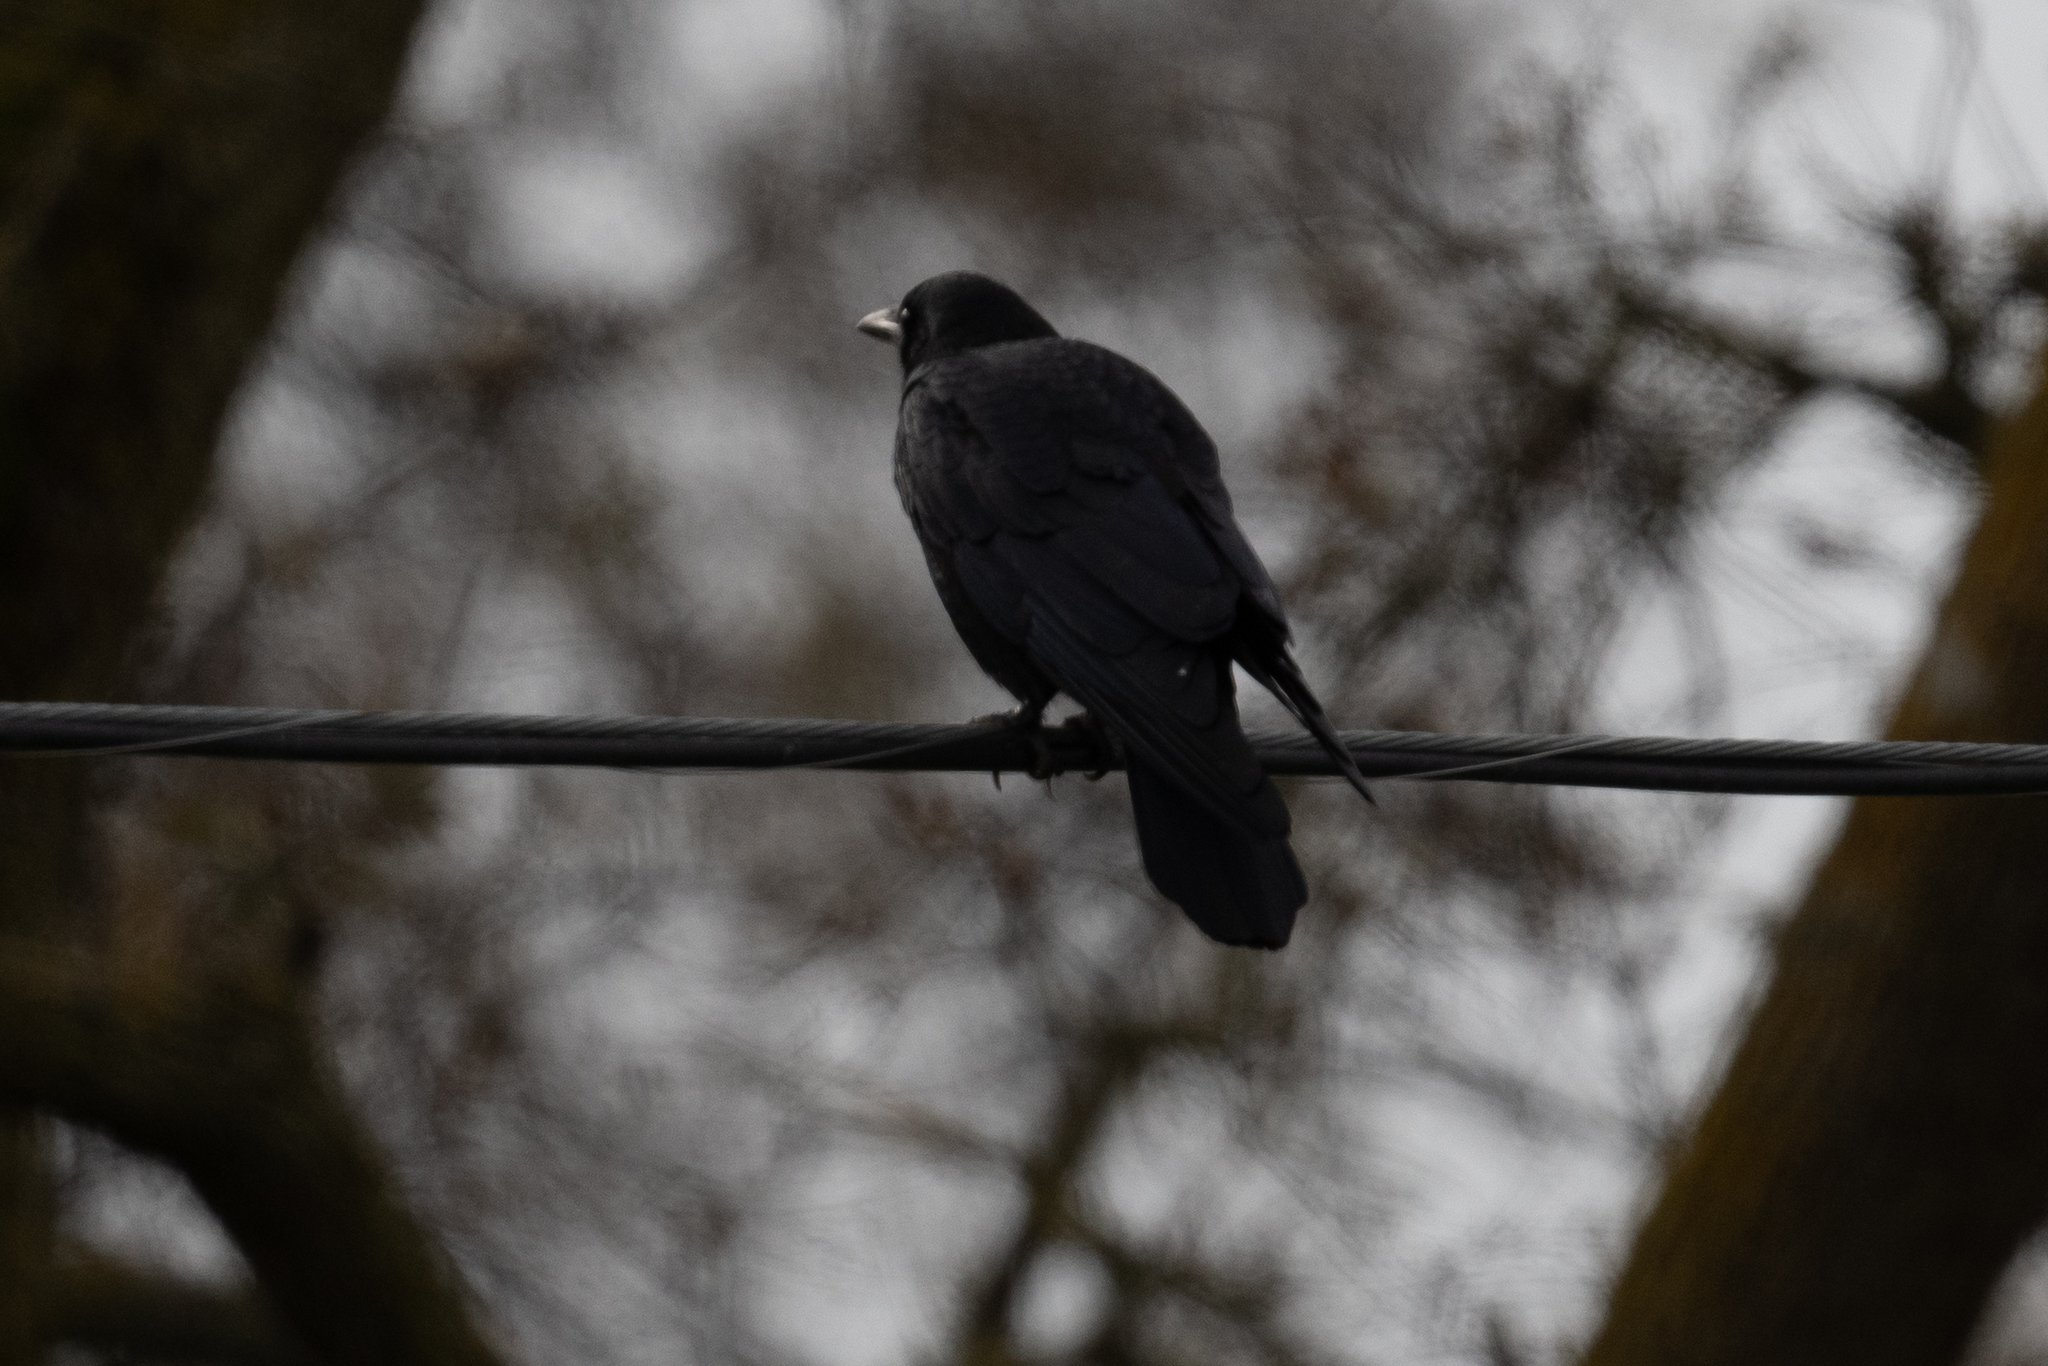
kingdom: Animalia
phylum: Chordata
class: Aves
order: Passeriformes
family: Corvidae
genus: Corvus
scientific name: Corvus brachyrhynchos
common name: American crow
